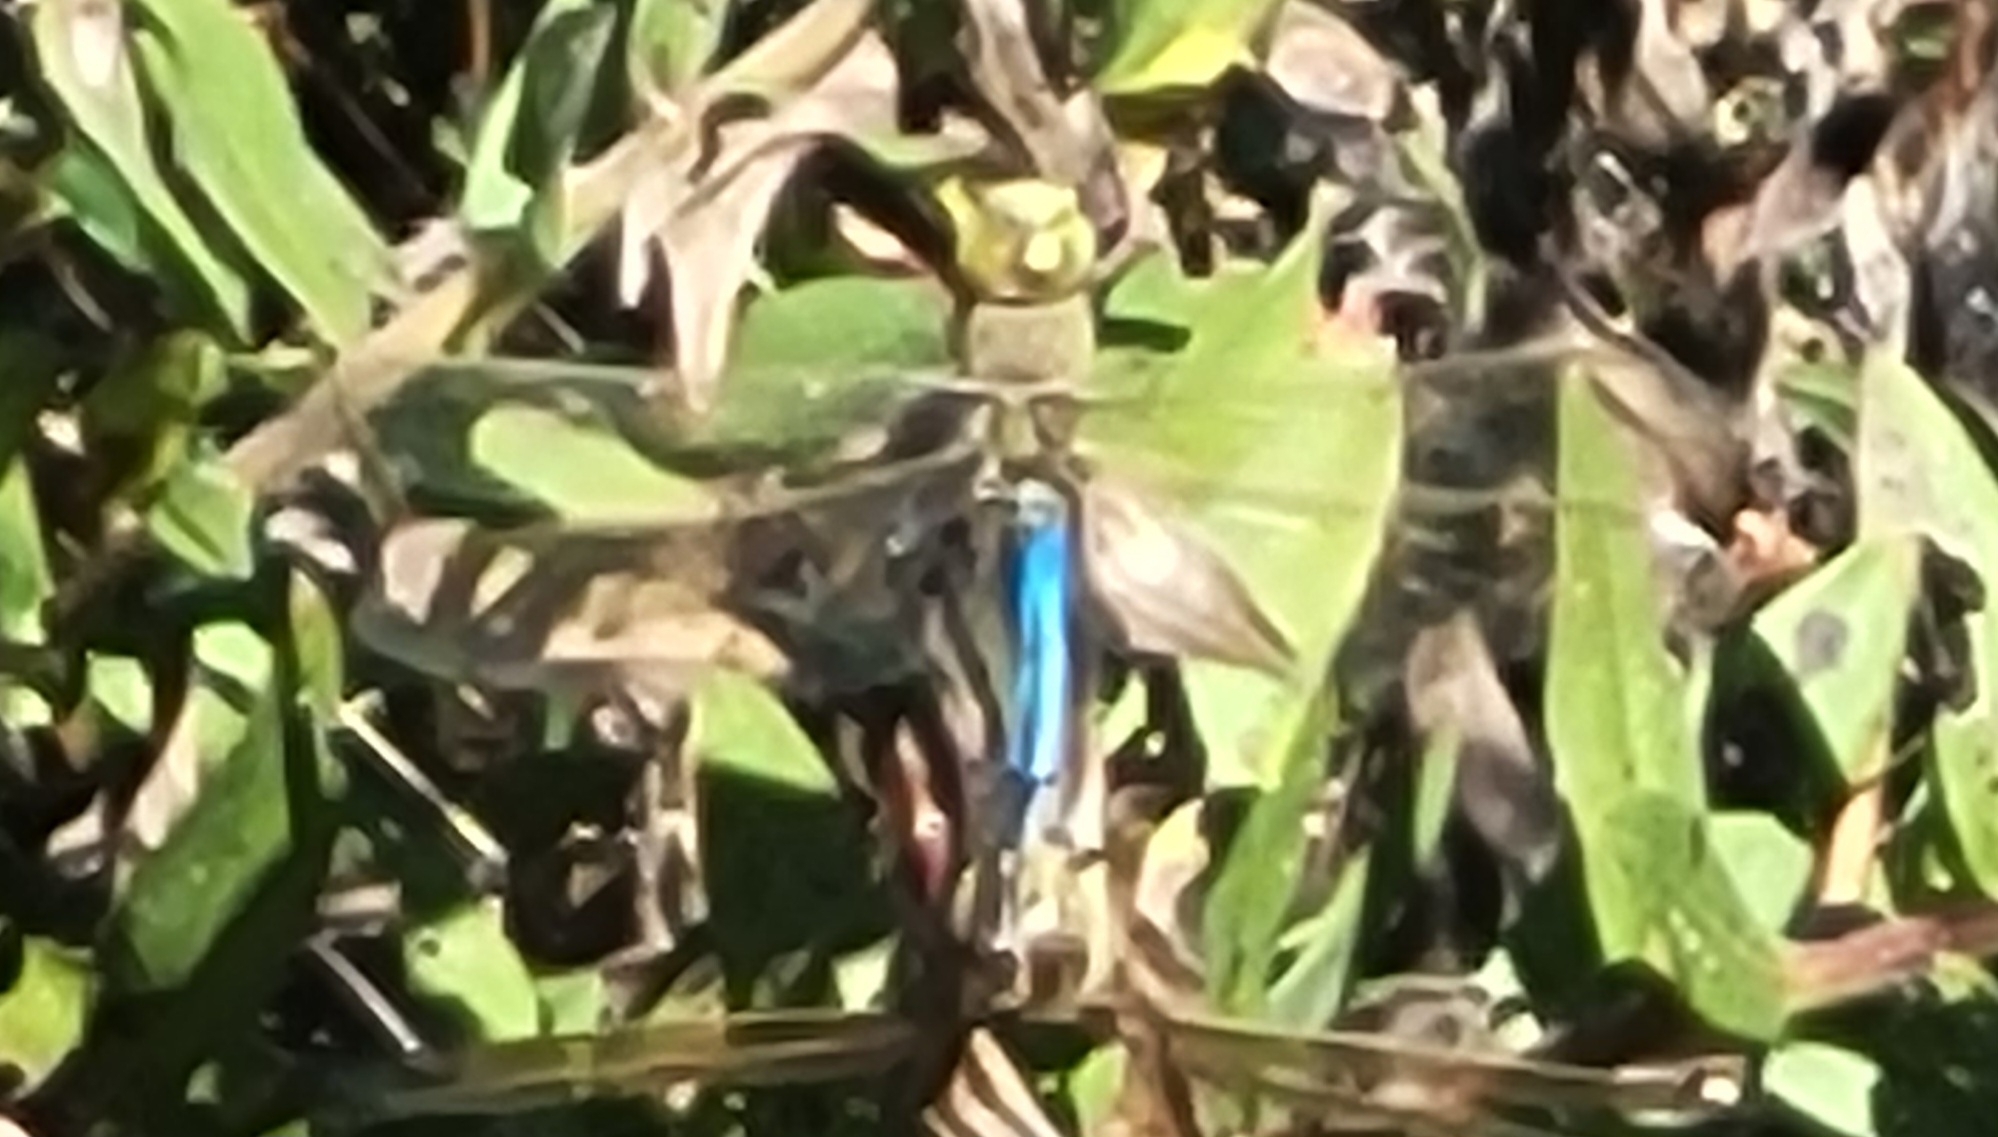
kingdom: Animalia
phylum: Arthropoda
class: Insecta
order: Odonata
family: Aeshnidae
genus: Anax
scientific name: Anax junius
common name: Common green darner
